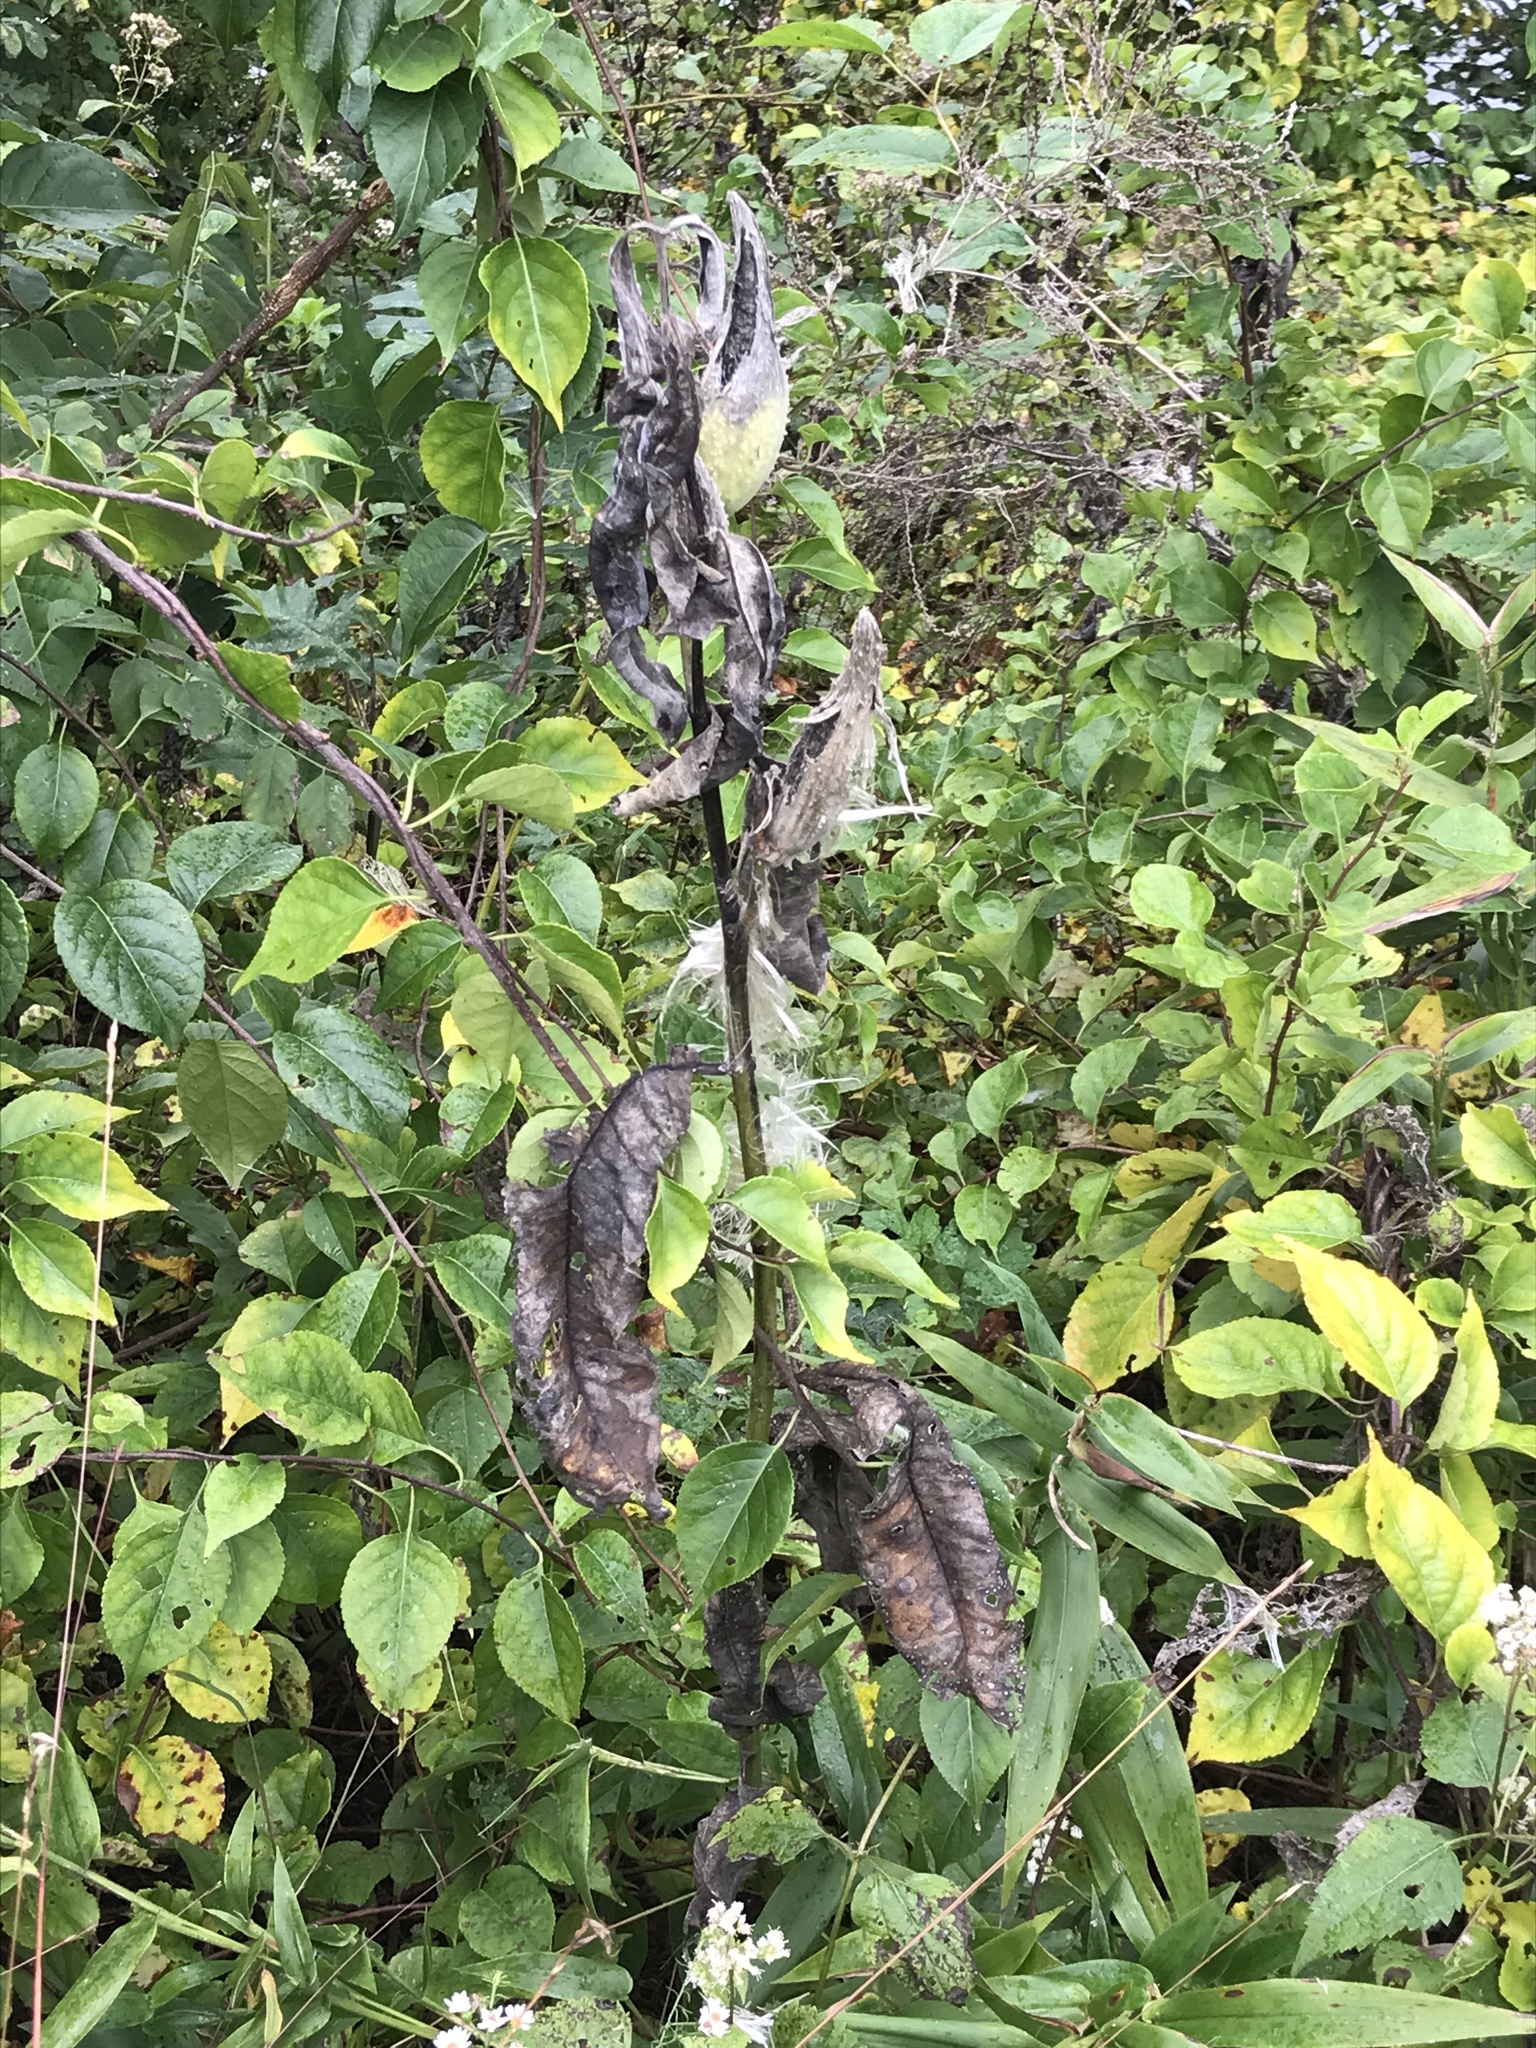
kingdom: Plantae
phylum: Tracheophyta
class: Magnoliopsida
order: Gentianales
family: Apocynaceae
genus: Asclepias
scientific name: Asclepias syriaca
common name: Common milkweed
